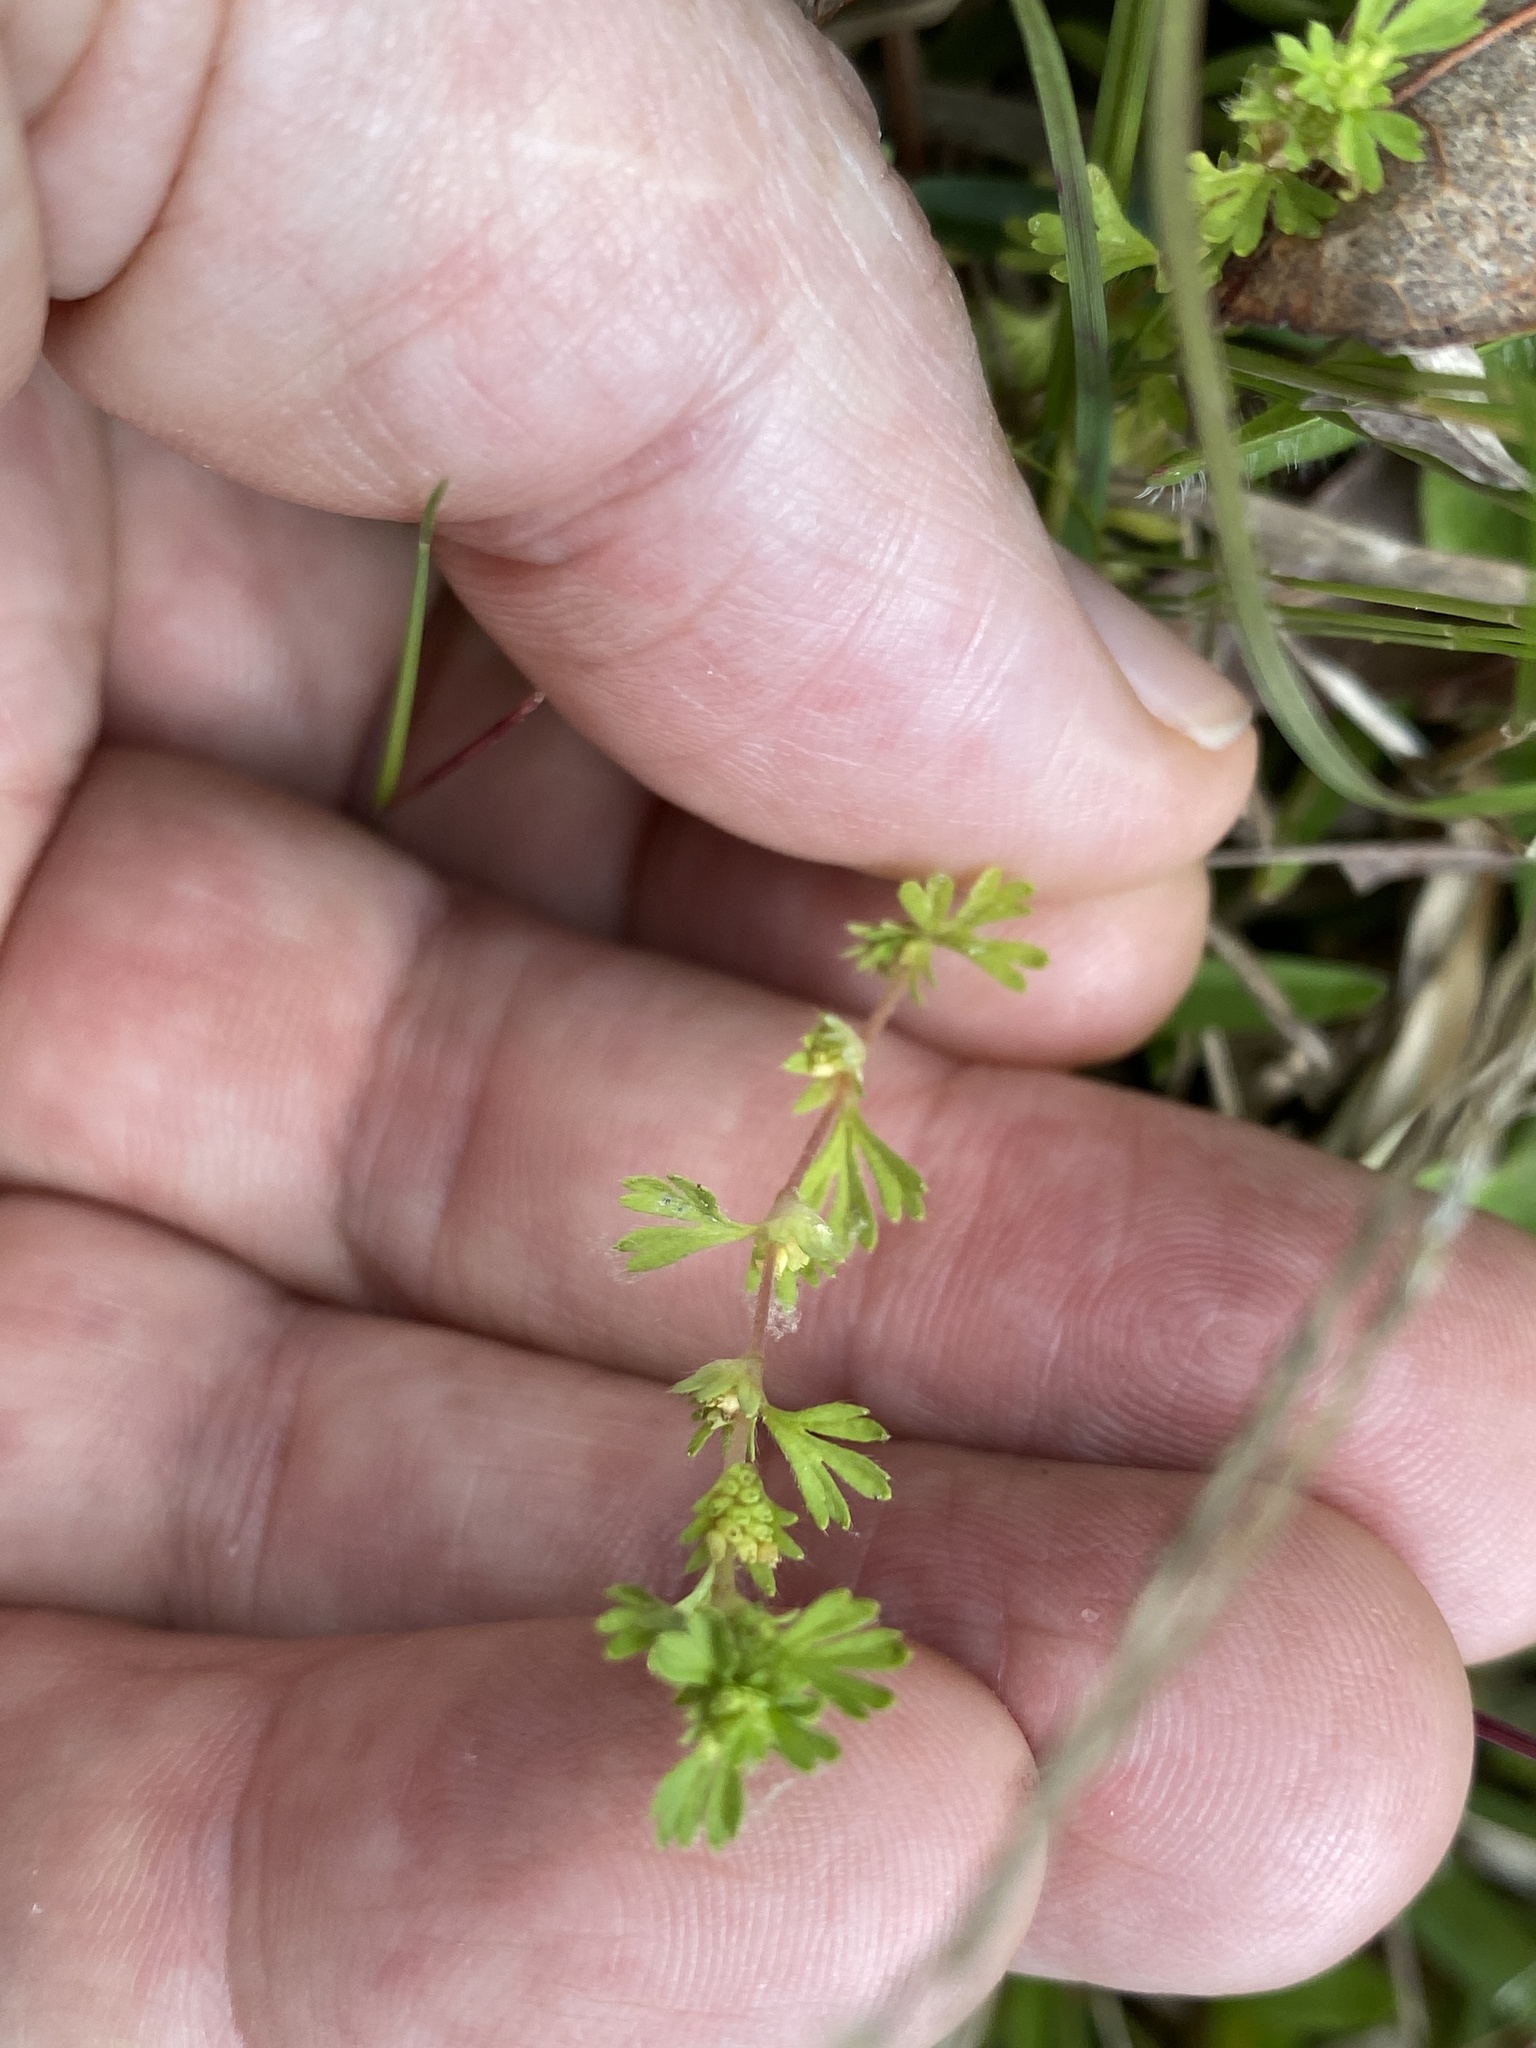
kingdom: Plantae
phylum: Tracheophyta
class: Magnoliopsida
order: Rosales
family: Rosaceae
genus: Aphanes
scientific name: Aphanes australis
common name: Slender parsley-piert
